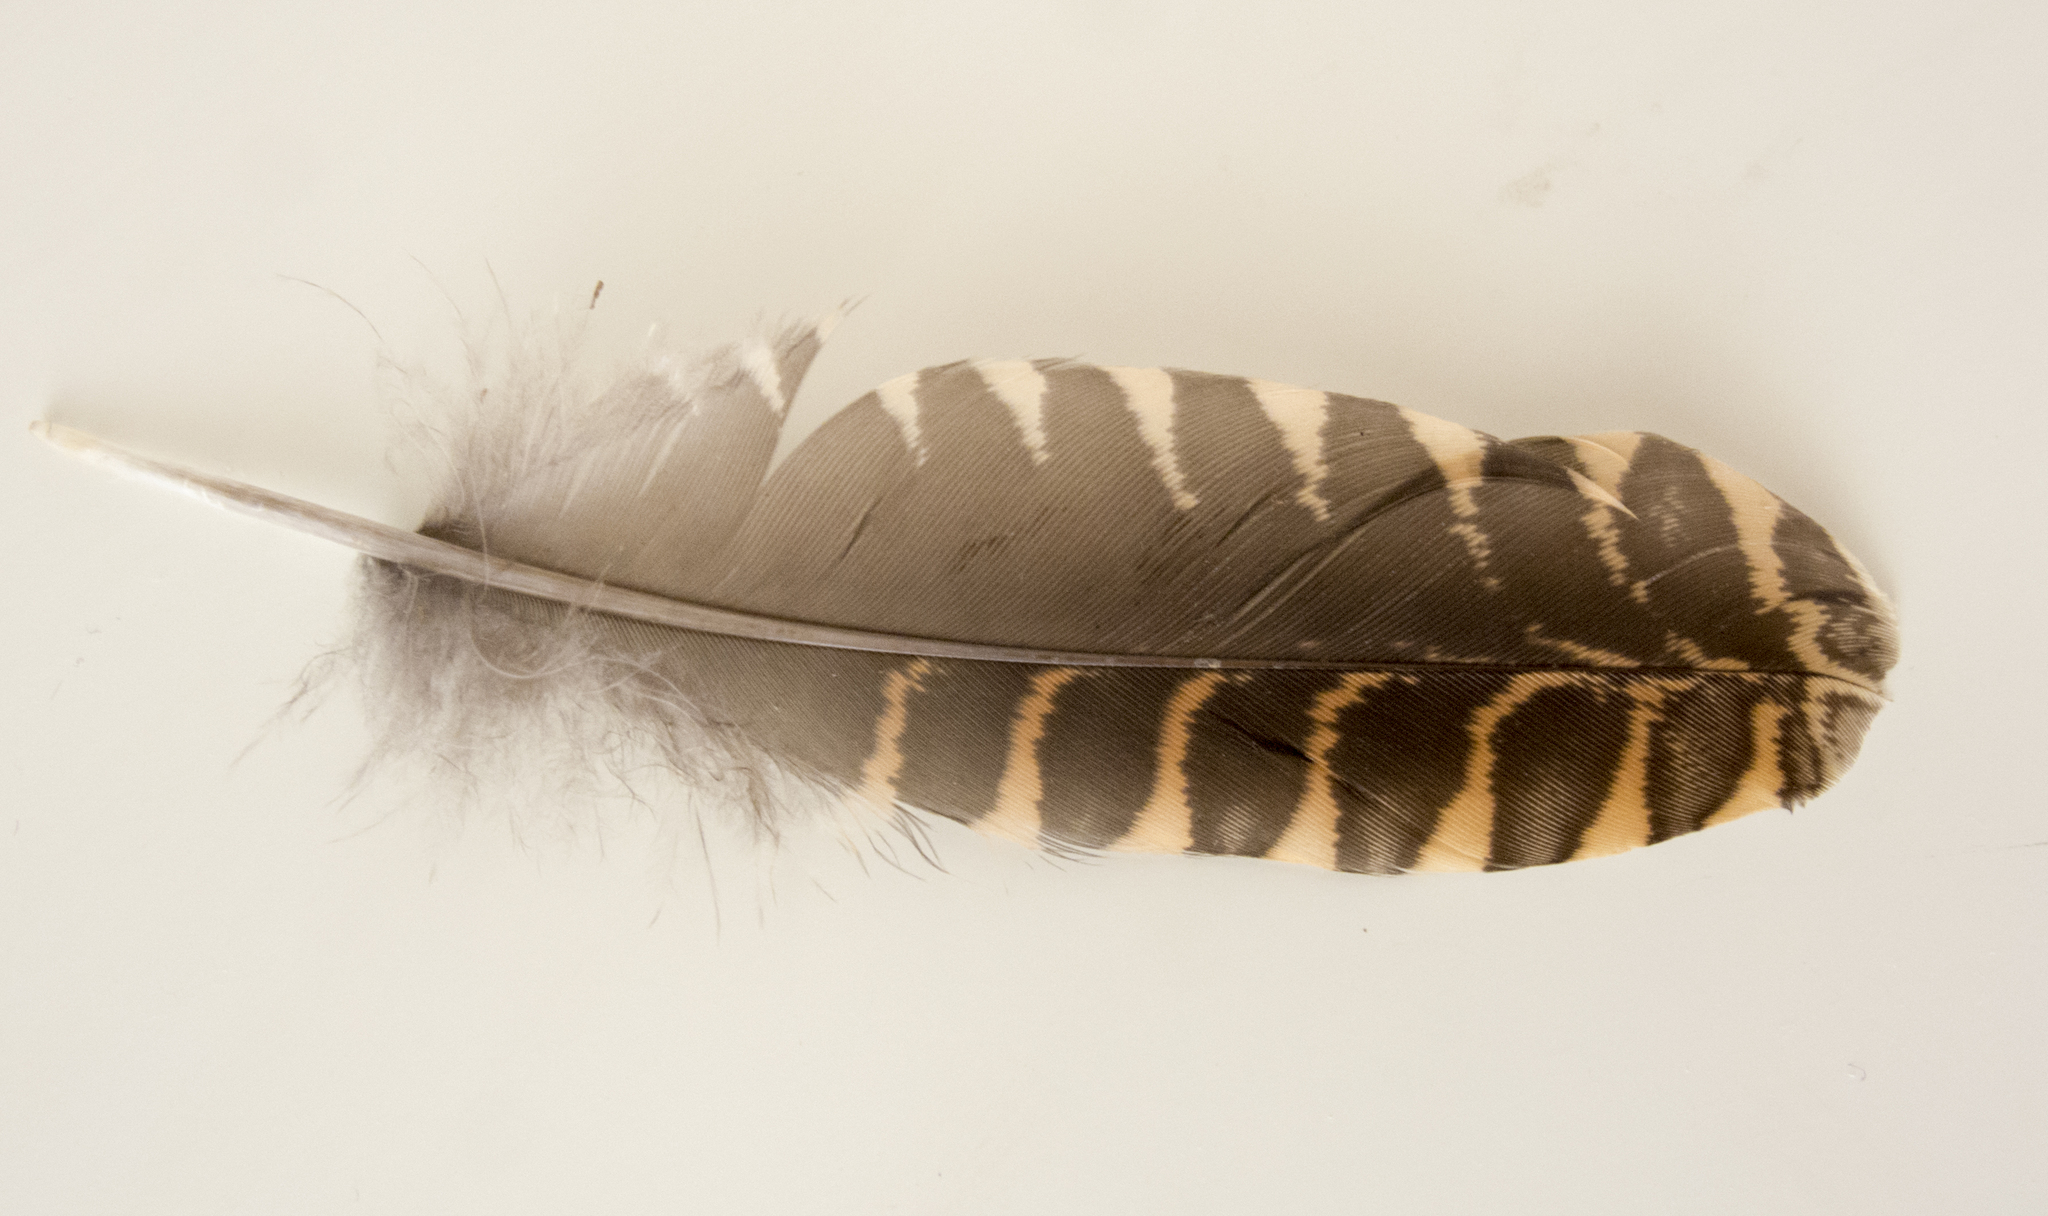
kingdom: Animalia
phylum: Chordata
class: Aves
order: Charadriiformes
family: Scolopacidae
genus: Scolopax
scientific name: Scolopax rusticola
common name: Eurasian woodcock
